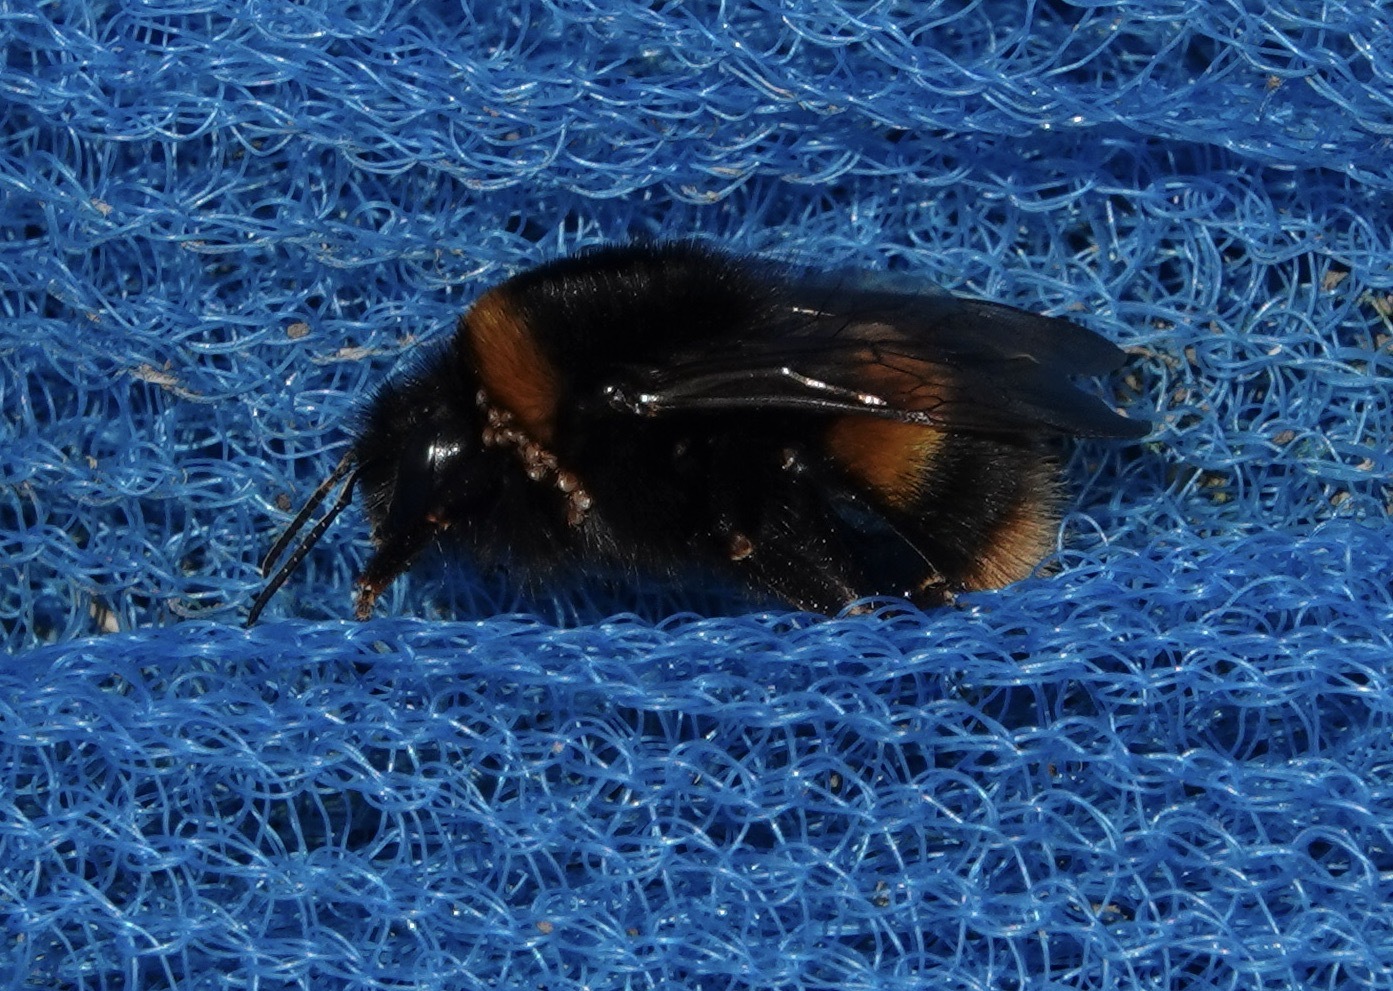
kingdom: Animalia
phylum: Arthropoda
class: Insecta
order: Hymenoptera
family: Apidae
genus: Bombus
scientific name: Bombus terrestris
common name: Buff-tailed bumblebee
